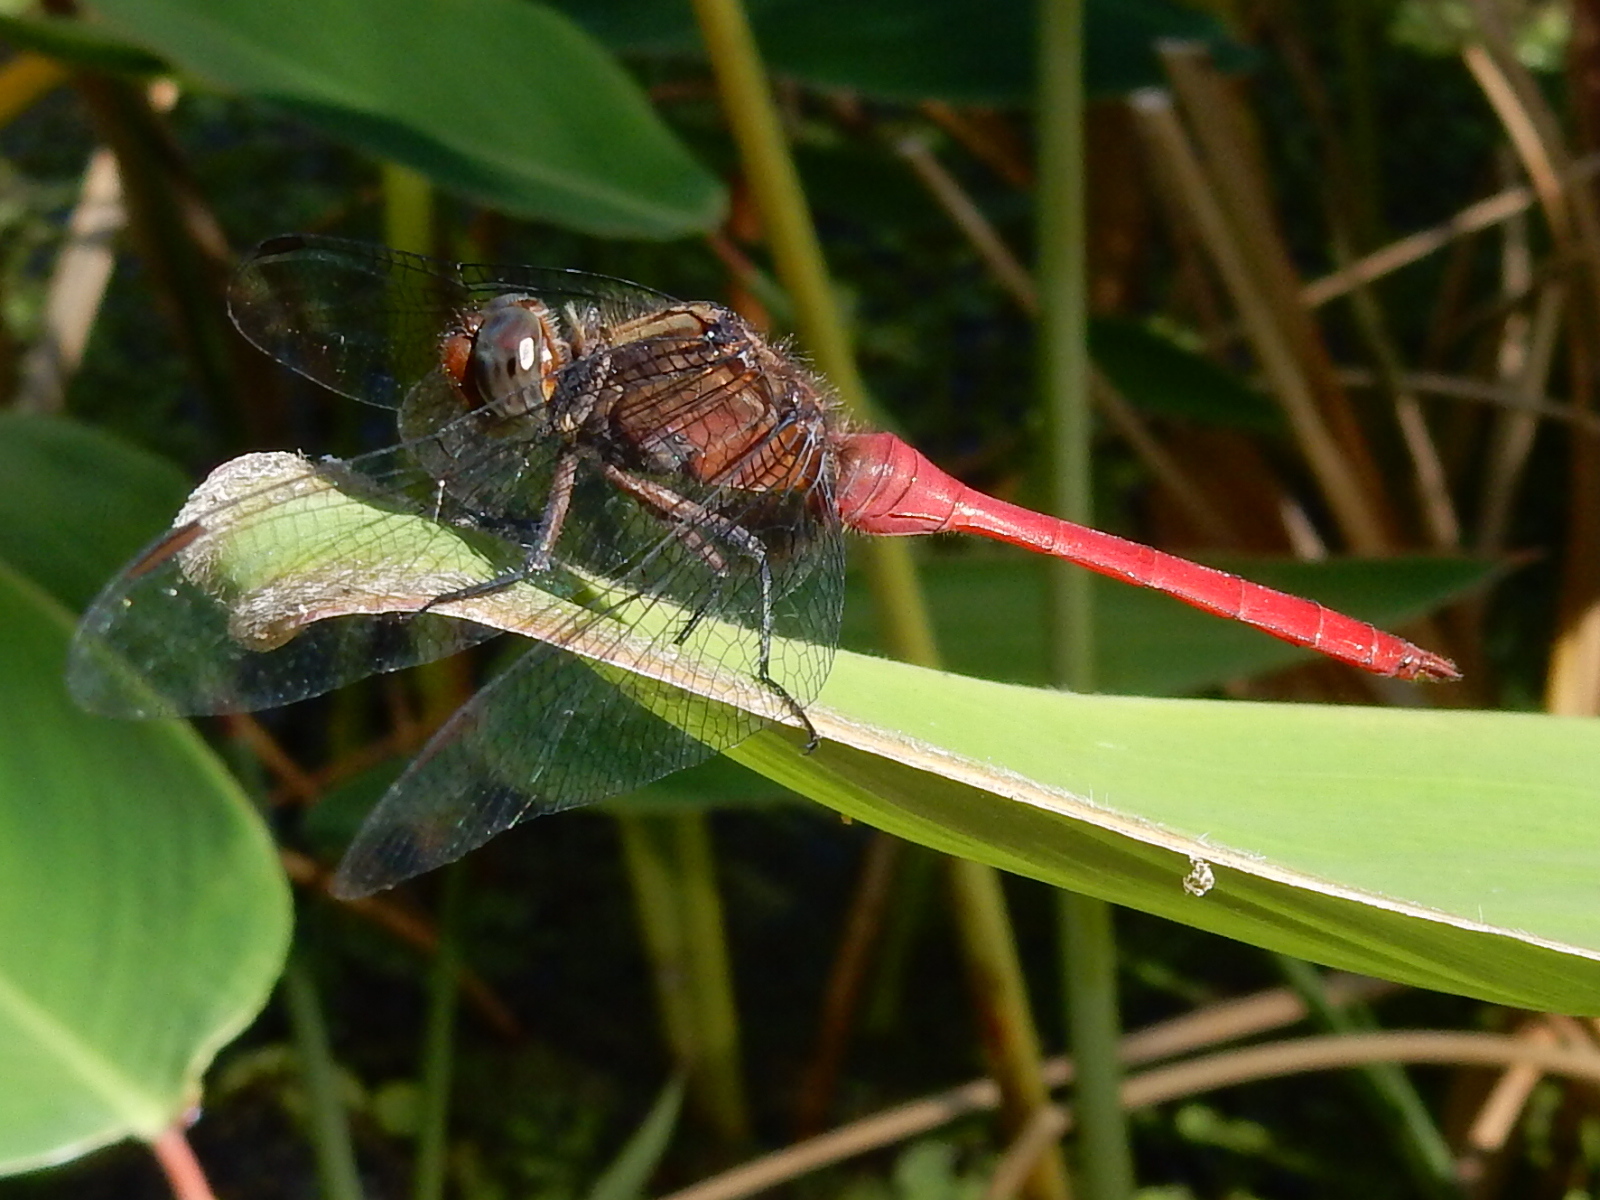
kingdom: Animalia
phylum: Arthropoda
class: Insecta
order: Odonata
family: Libellulidae
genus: Orthetrum
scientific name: Orthetrum villosovittatum
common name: Firery skimmer
